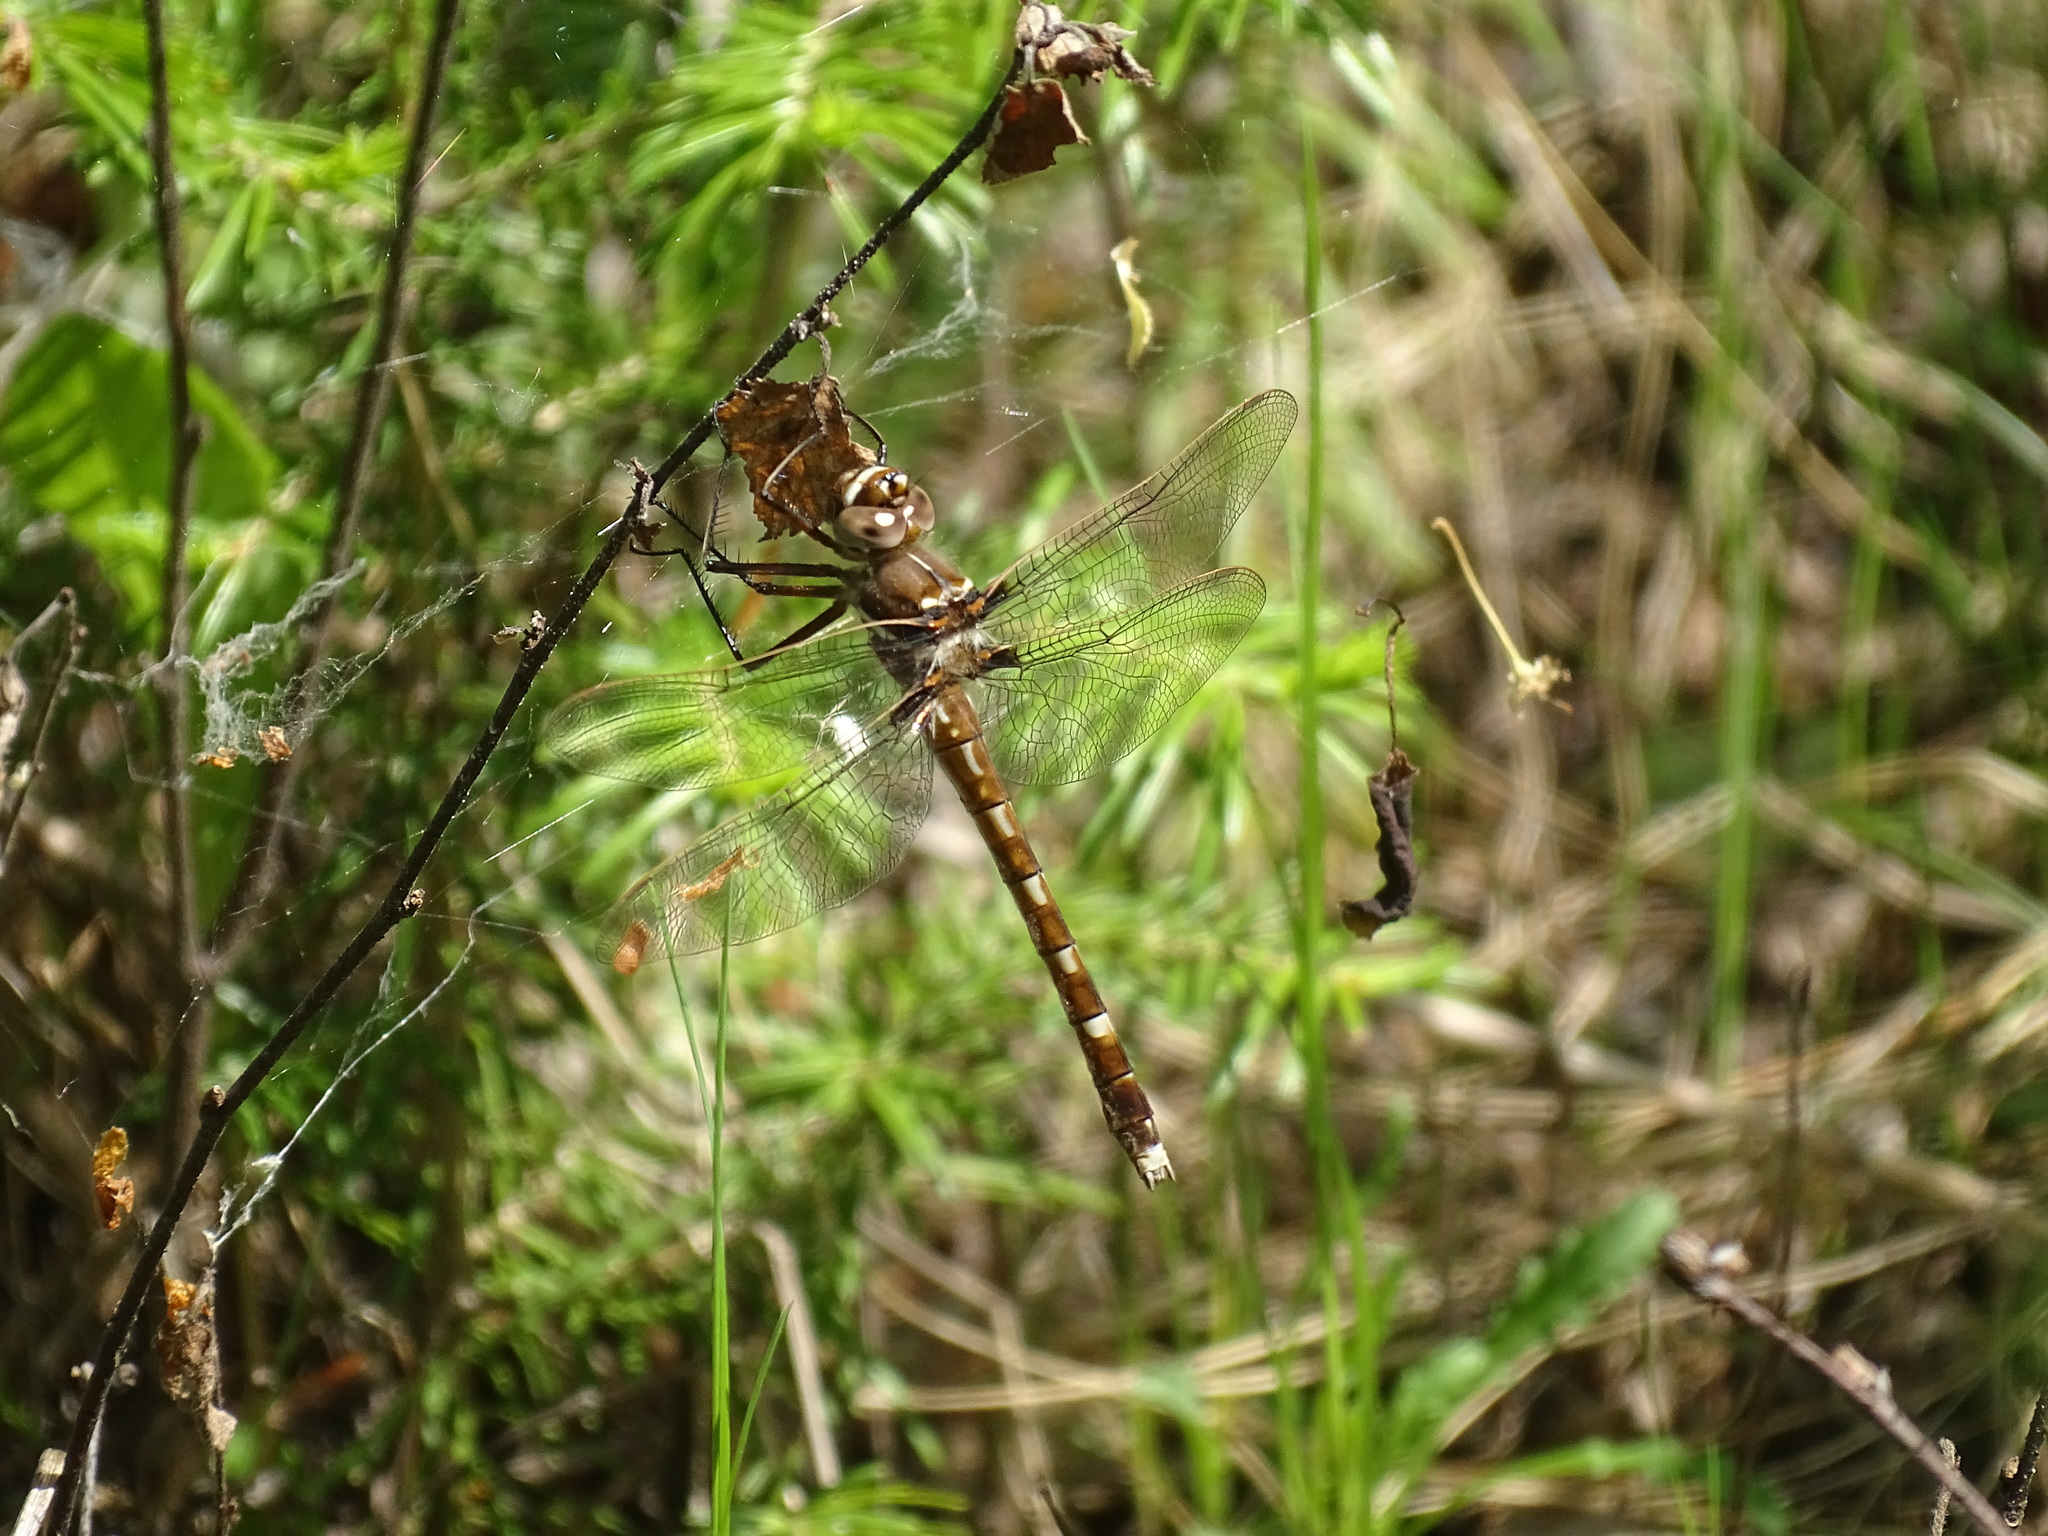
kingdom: Animalia
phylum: Arthropoda
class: Insecta
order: Odonata
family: Macromiidae
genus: Didymops
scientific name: Didymops transversa
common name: Stream cruiser
